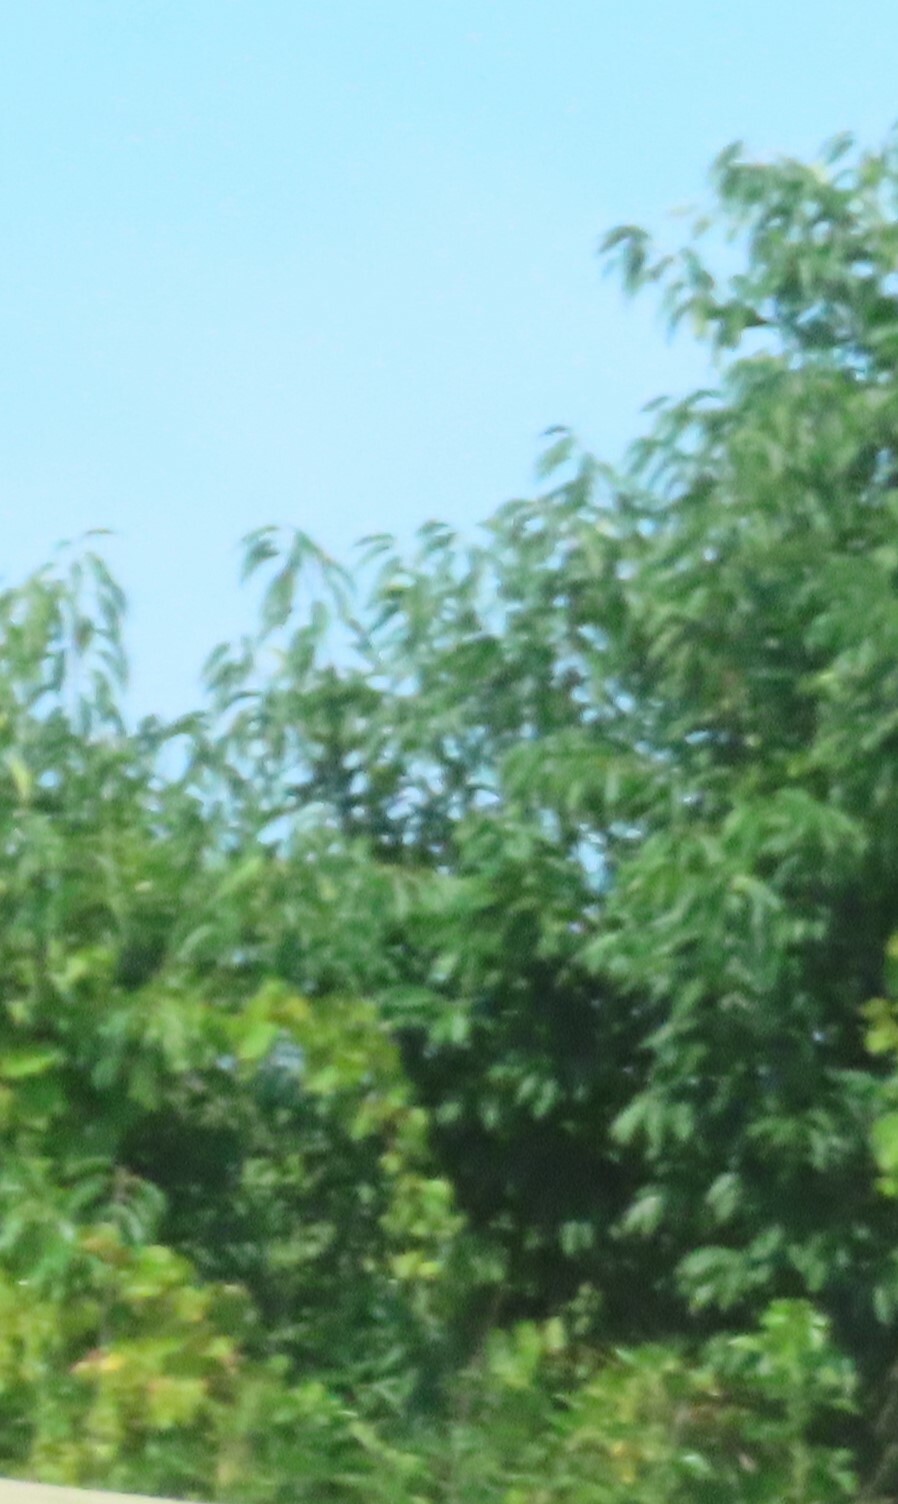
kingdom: Plantae
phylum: Tracheophyta
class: Magnoliopsida
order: Rosales
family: Rosaceae
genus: Prunus
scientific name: Prunus
